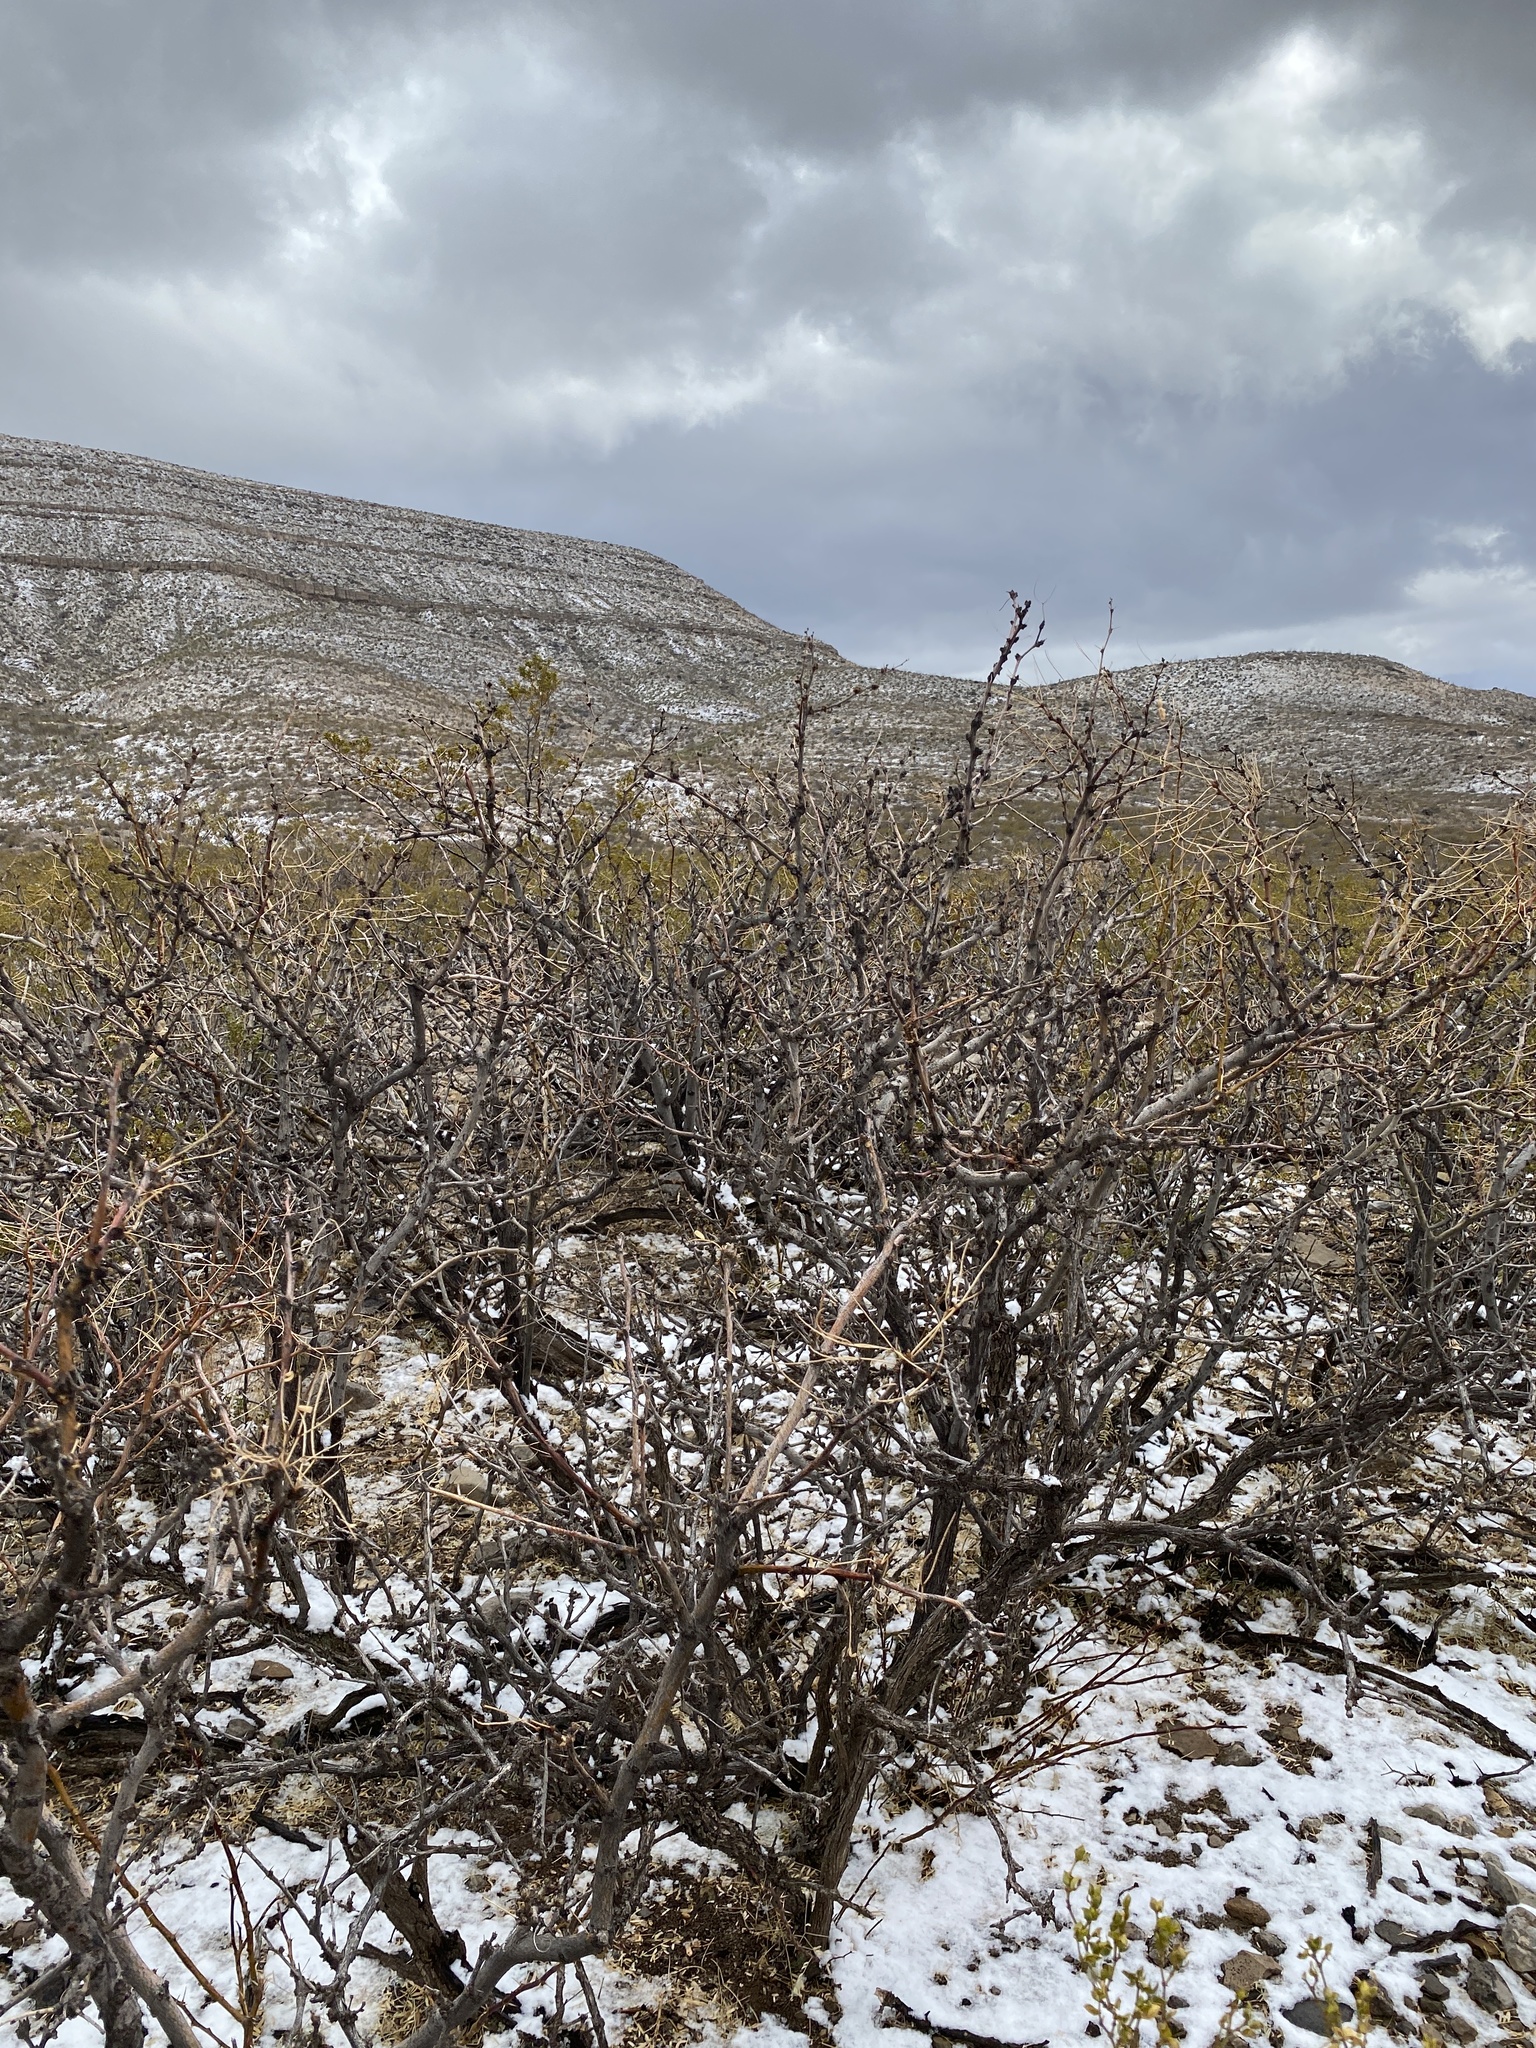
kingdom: Plantae
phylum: Tracheophyta
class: Magnoliopsida
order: Fabales
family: Fabaceae
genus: Prosopis
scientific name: Prosopis glandulosa
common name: Honey mesquite
